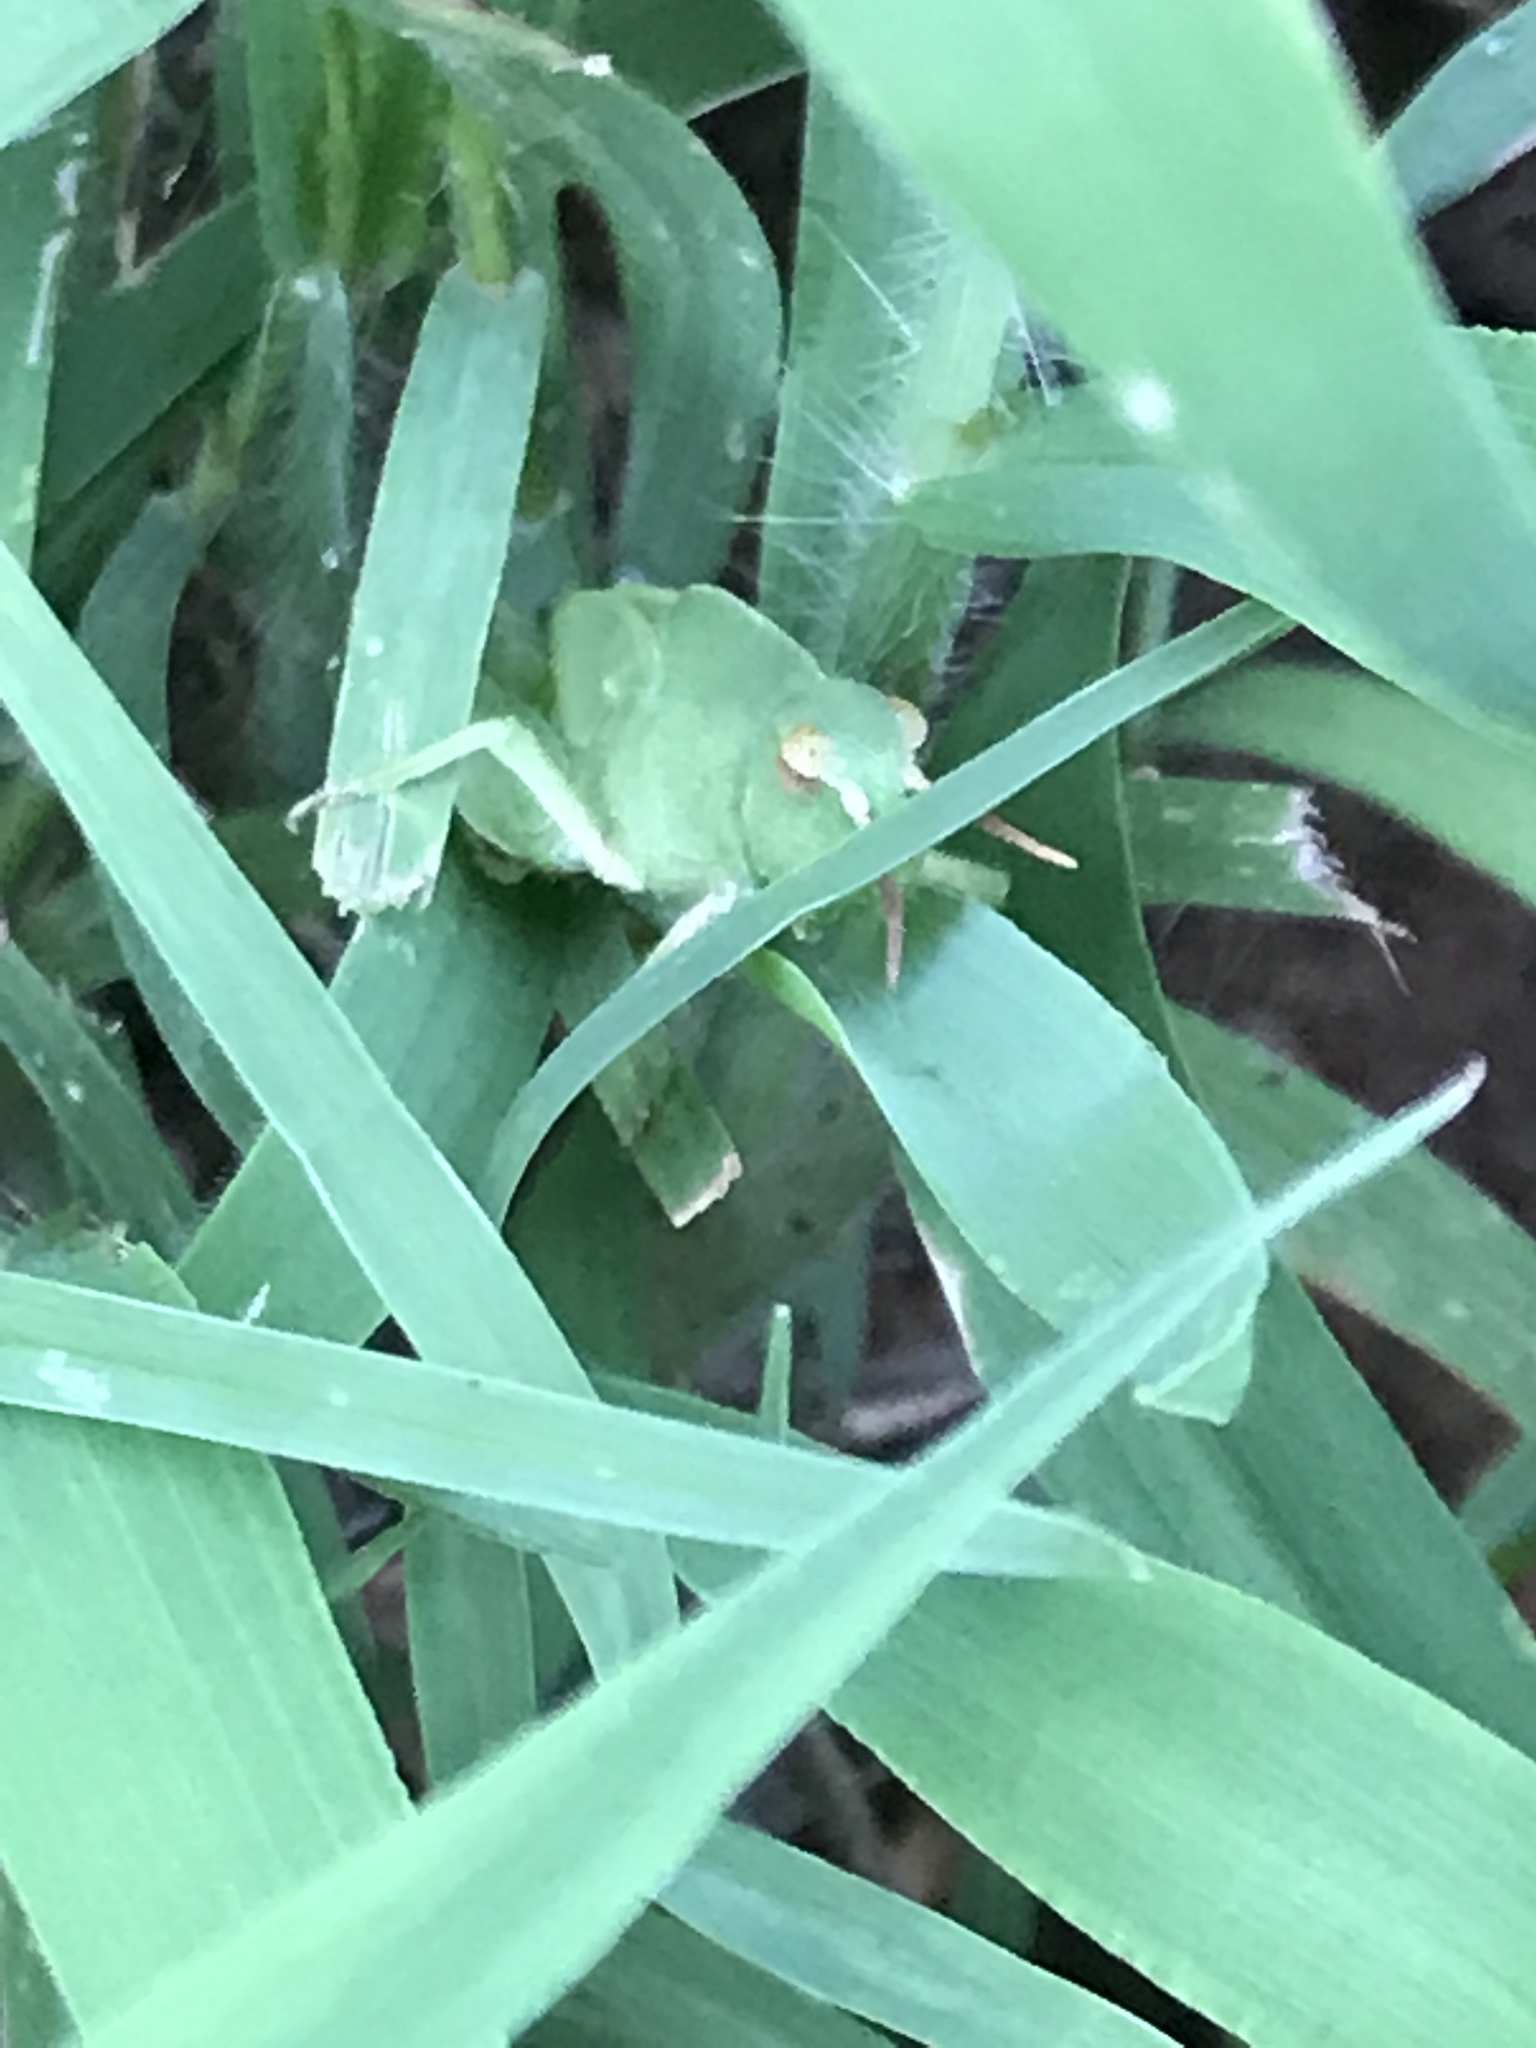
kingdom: Animalia
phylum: Arthropoda
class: Insecta
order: Orthoptera
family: Acrididae
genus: Chortophaga
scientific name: Chortophaga viridifasciata
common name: Green-striped grasshopper
